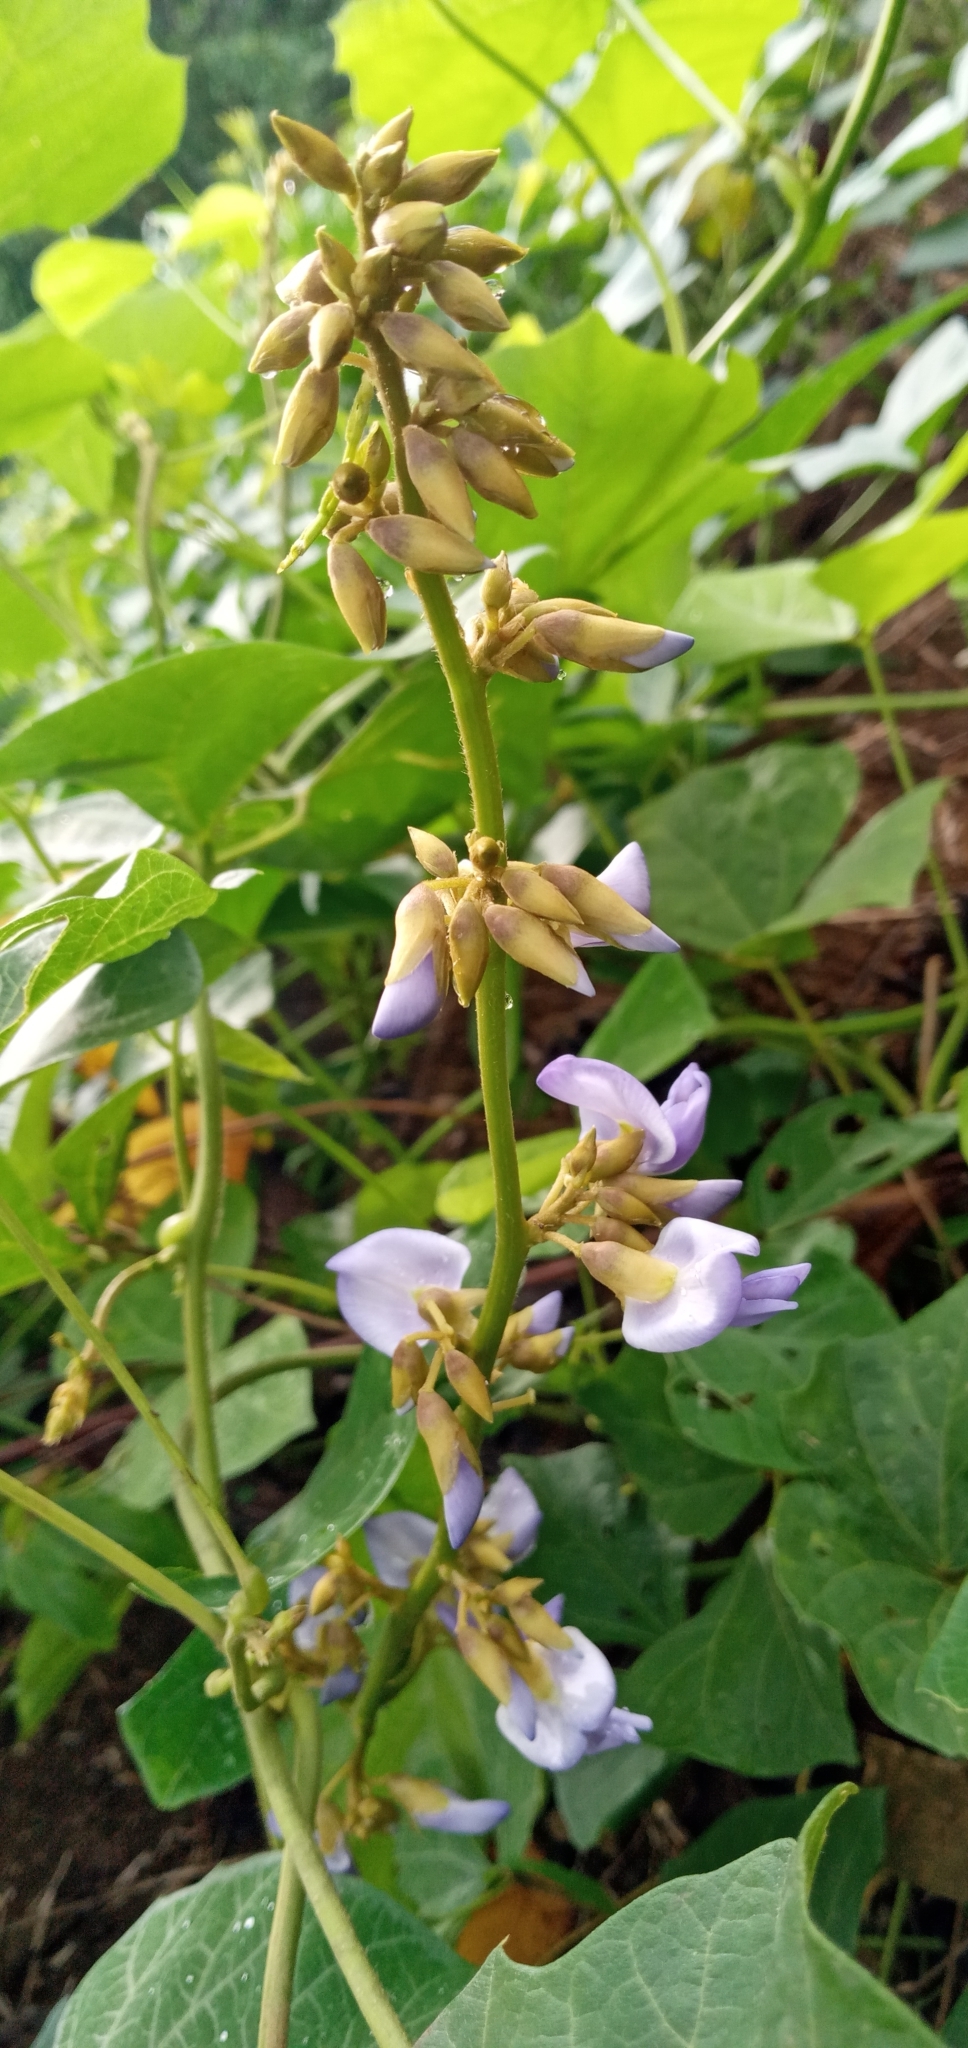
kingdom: Plantae
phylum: Tracheophyta
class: Magnoliopsida
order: Fabales
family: Fabaceae
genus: Pachyrhizus
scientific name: Pachyrhizus erosus
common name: Yam bean
